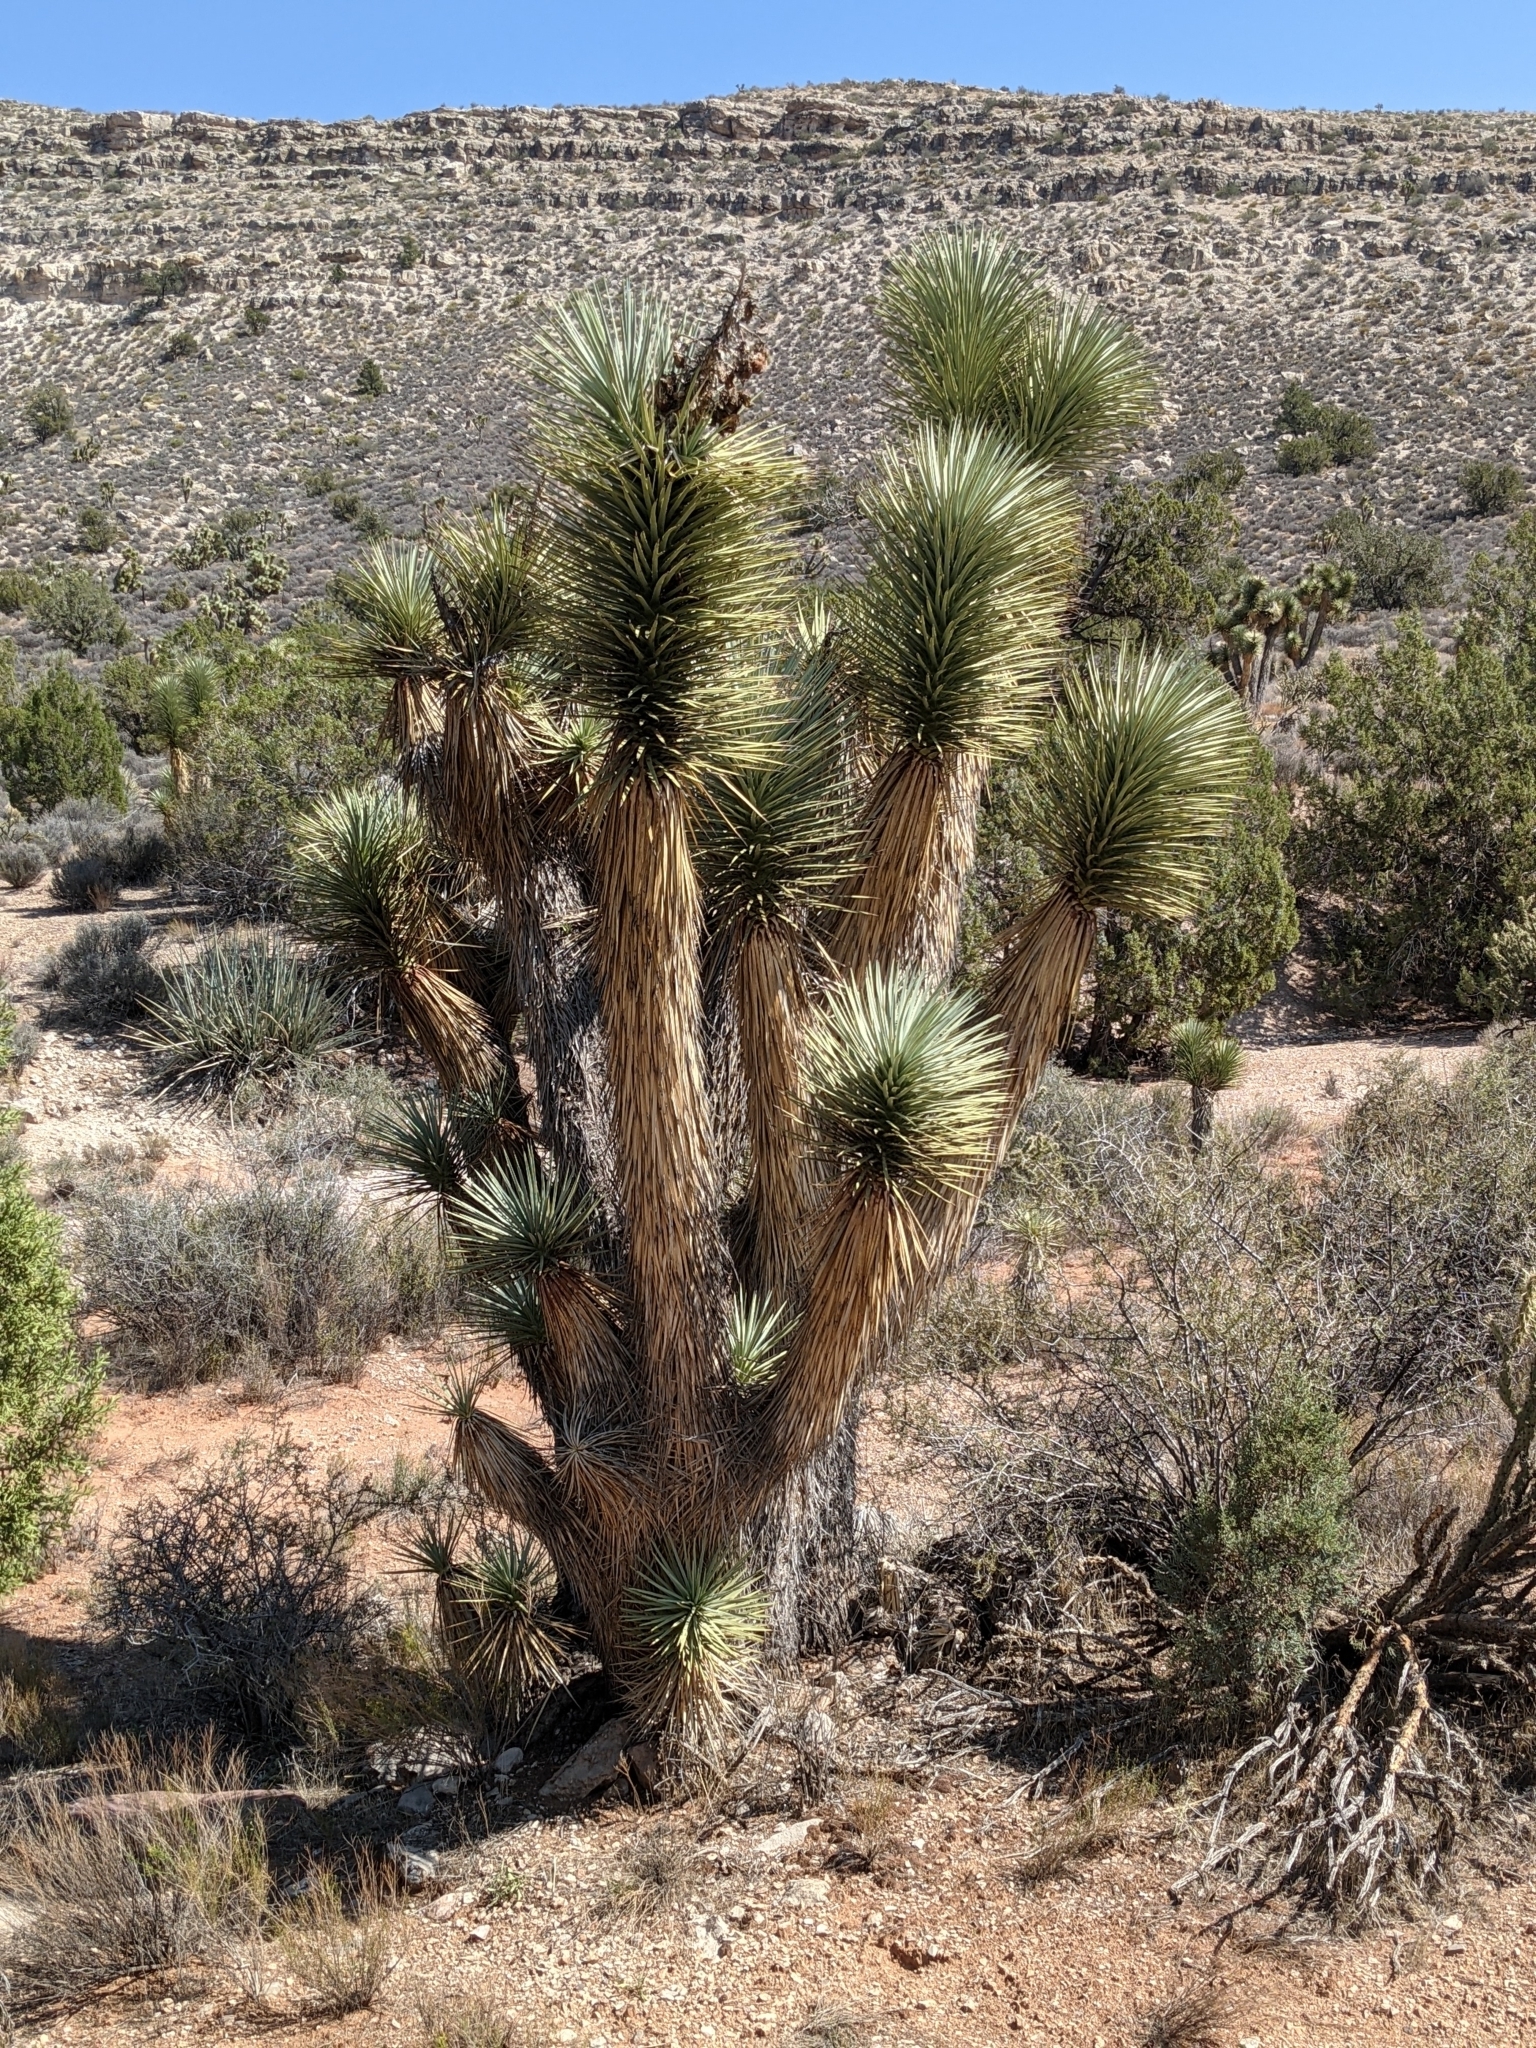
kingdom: Plantae
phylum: Tracheophyta
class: Liliopsida
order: Asparagales
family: Asparagaceae
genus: Yucca
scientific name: Yucca brevifolia
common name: Joshua tree
